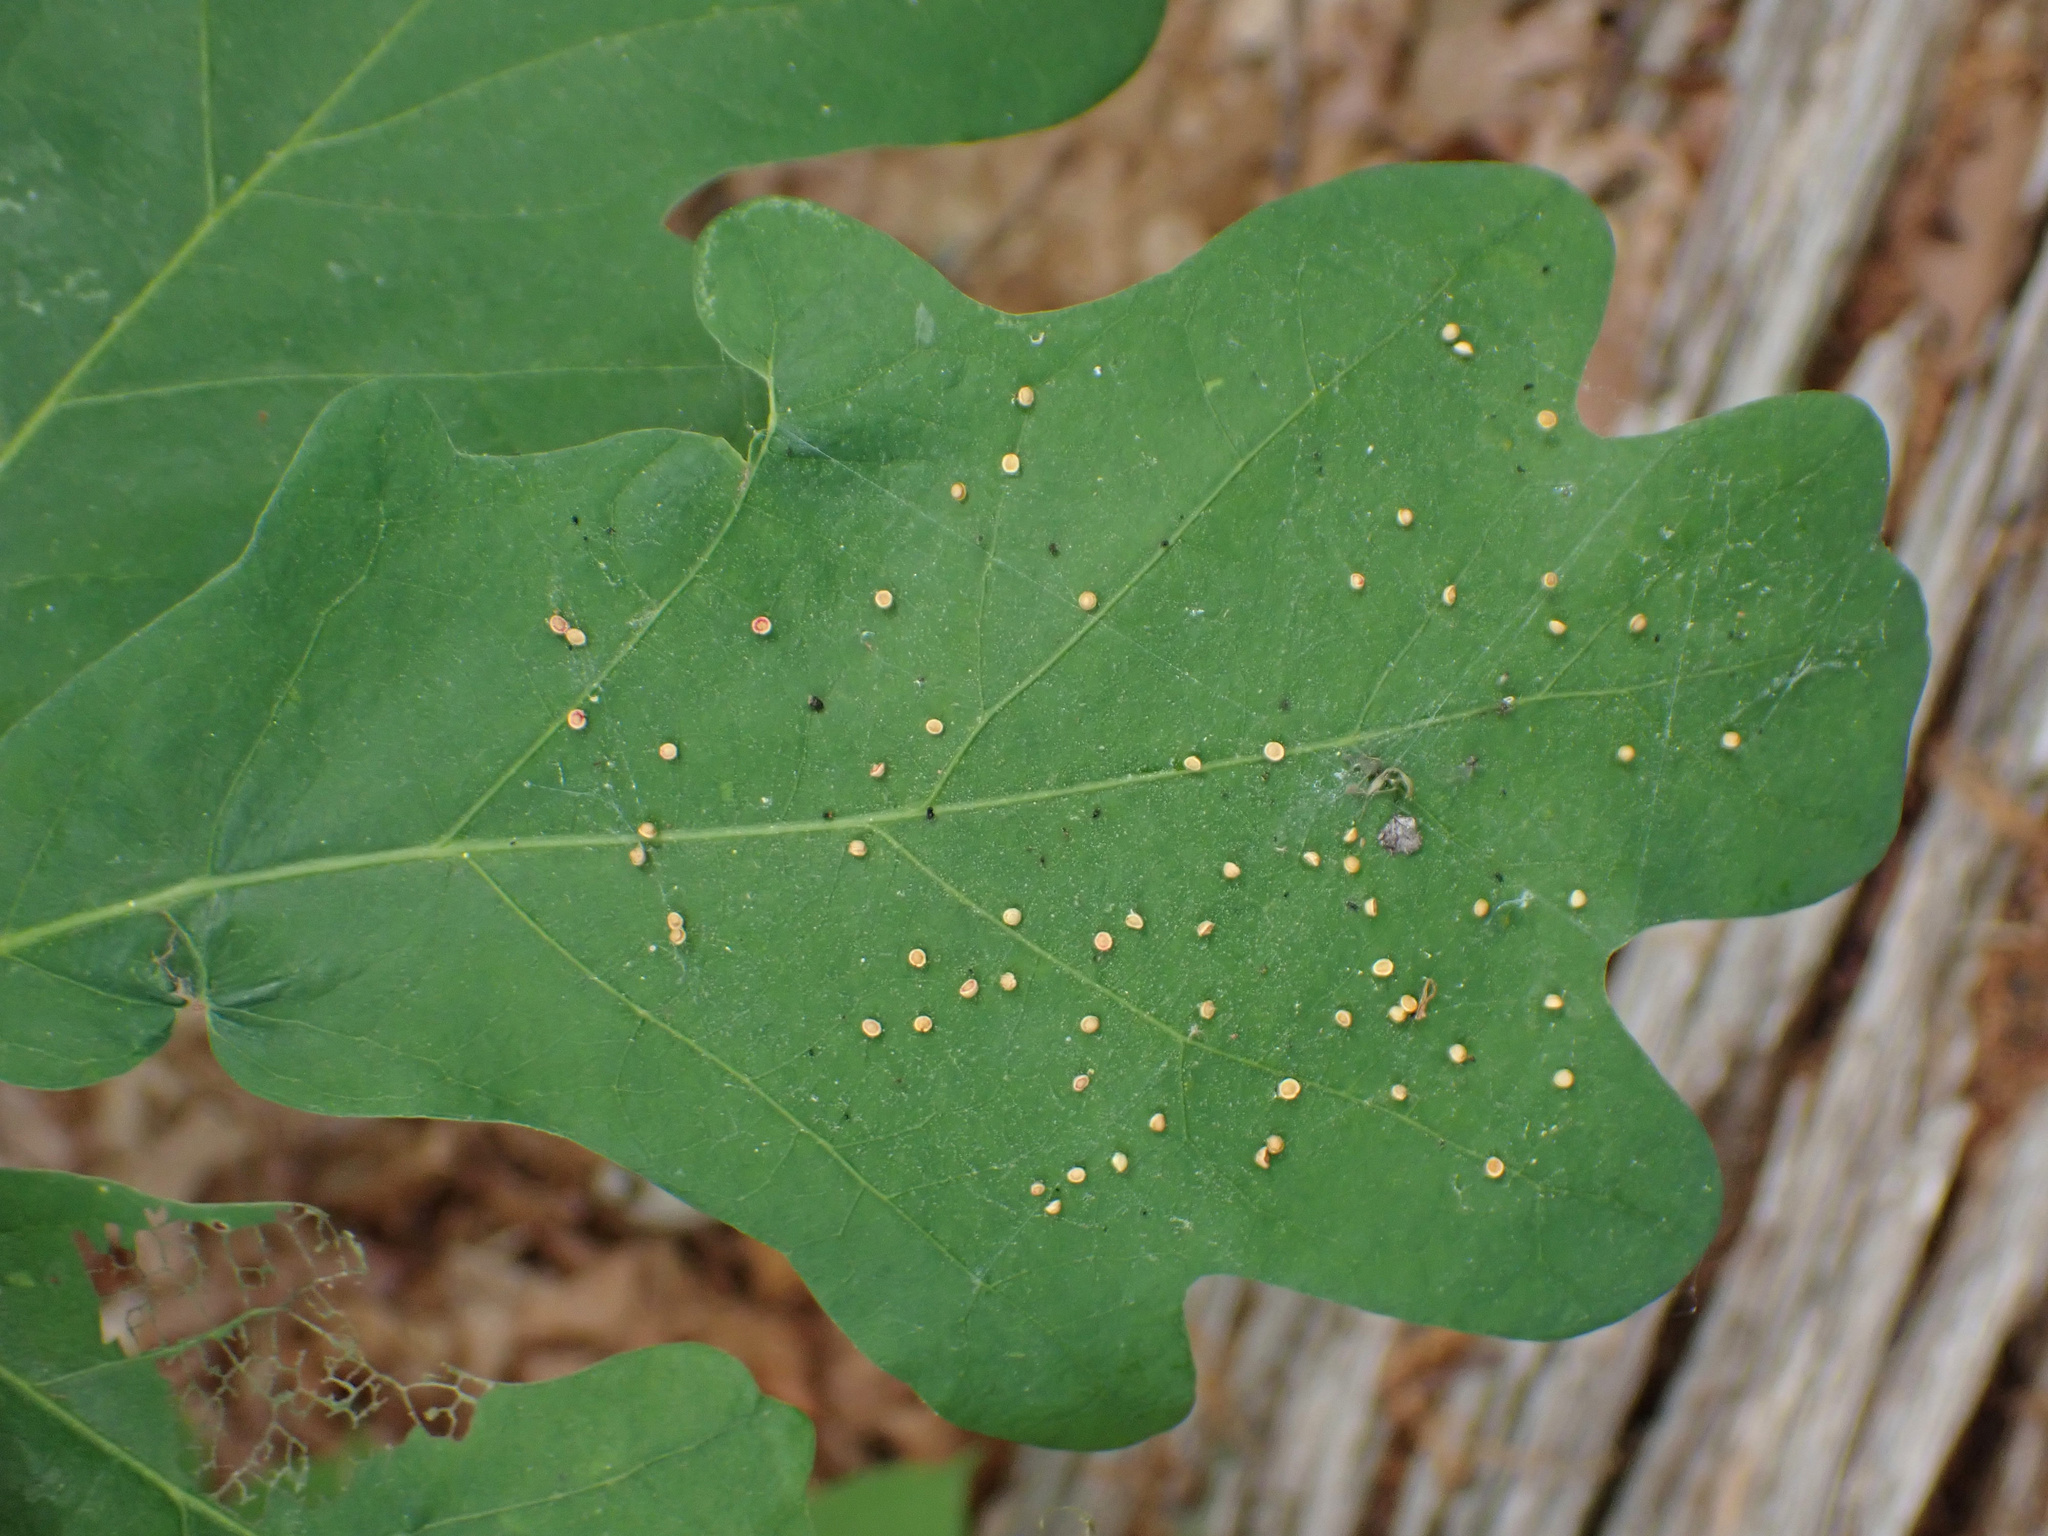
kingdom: Animalia
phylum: Arthropoda
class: Insecta
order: Hymenoptera
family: Cynipidae
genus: Neuroterus
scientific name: Neuroterus
